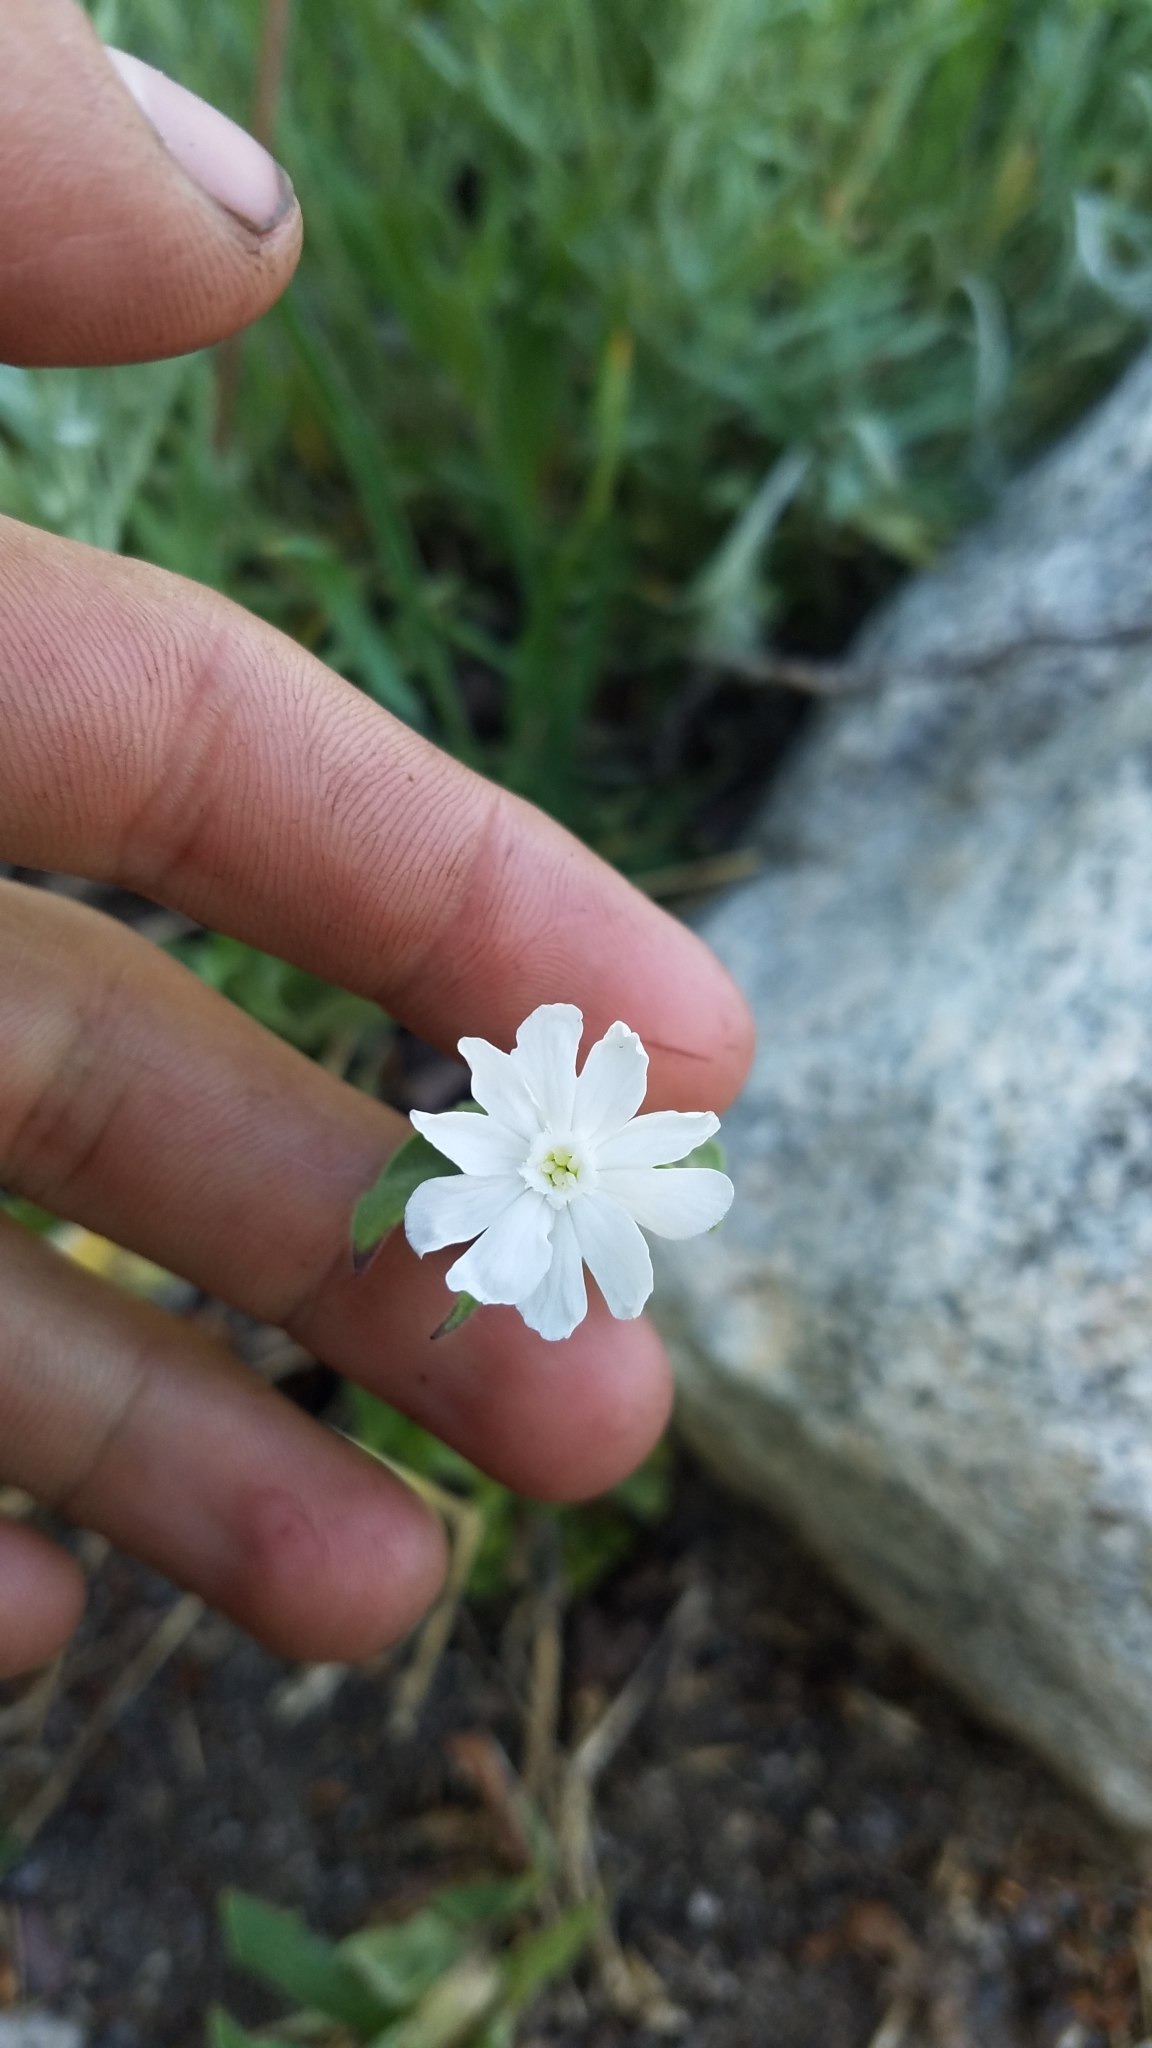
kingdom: Plantae
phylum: Tracheophyta
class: Magnoliopsida
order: Caryophyllales
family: Caryophyllaceae
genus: Silene
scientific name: Silene latifolia
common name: White campion
